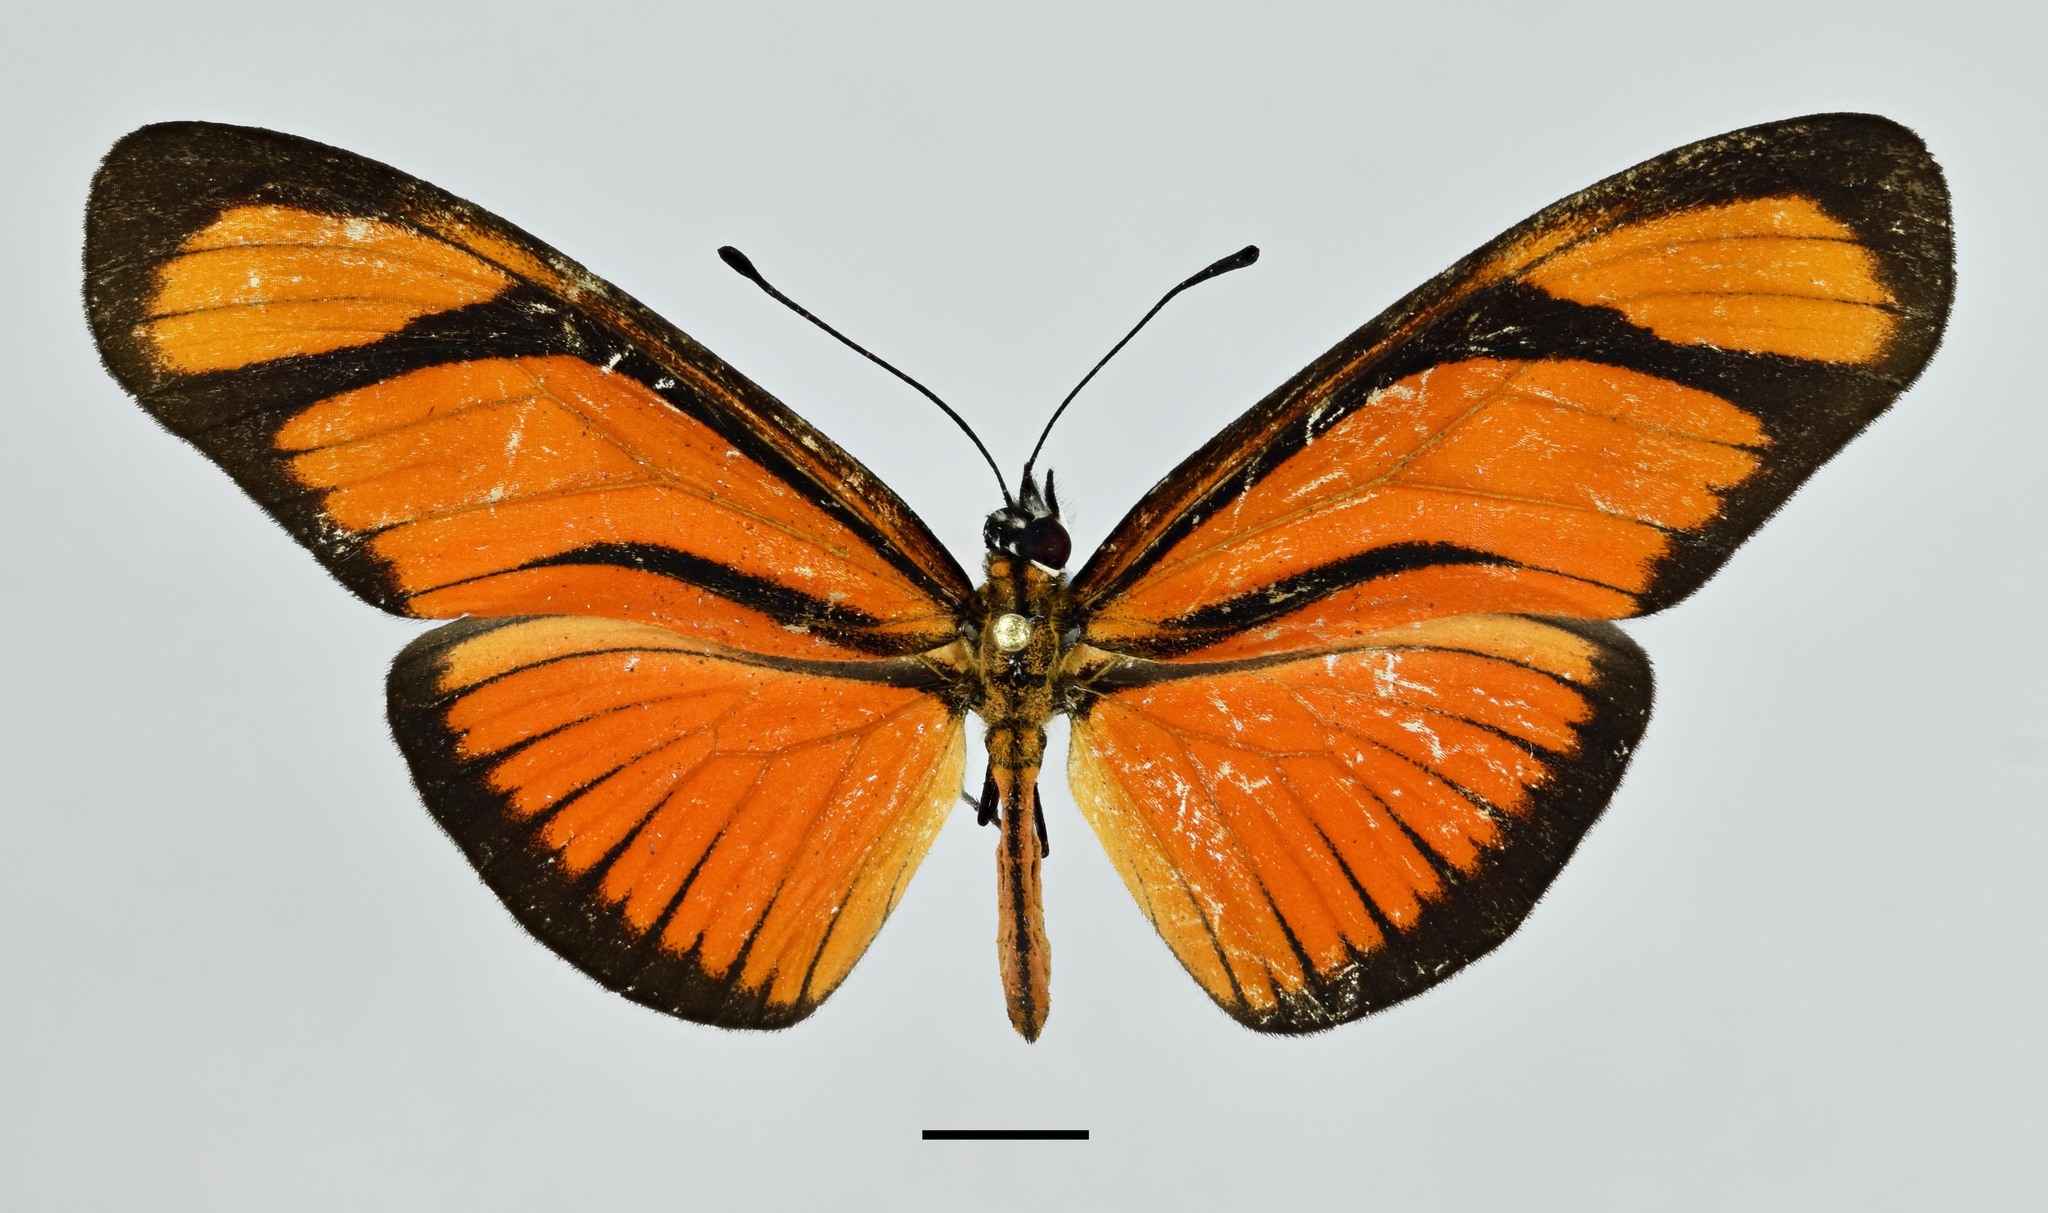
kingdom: Animalia
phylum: Arthropoda
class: Insecta
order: Lepidoptera
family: Nymphalidae
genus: Heliconius
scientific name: Heliconius aliphera
